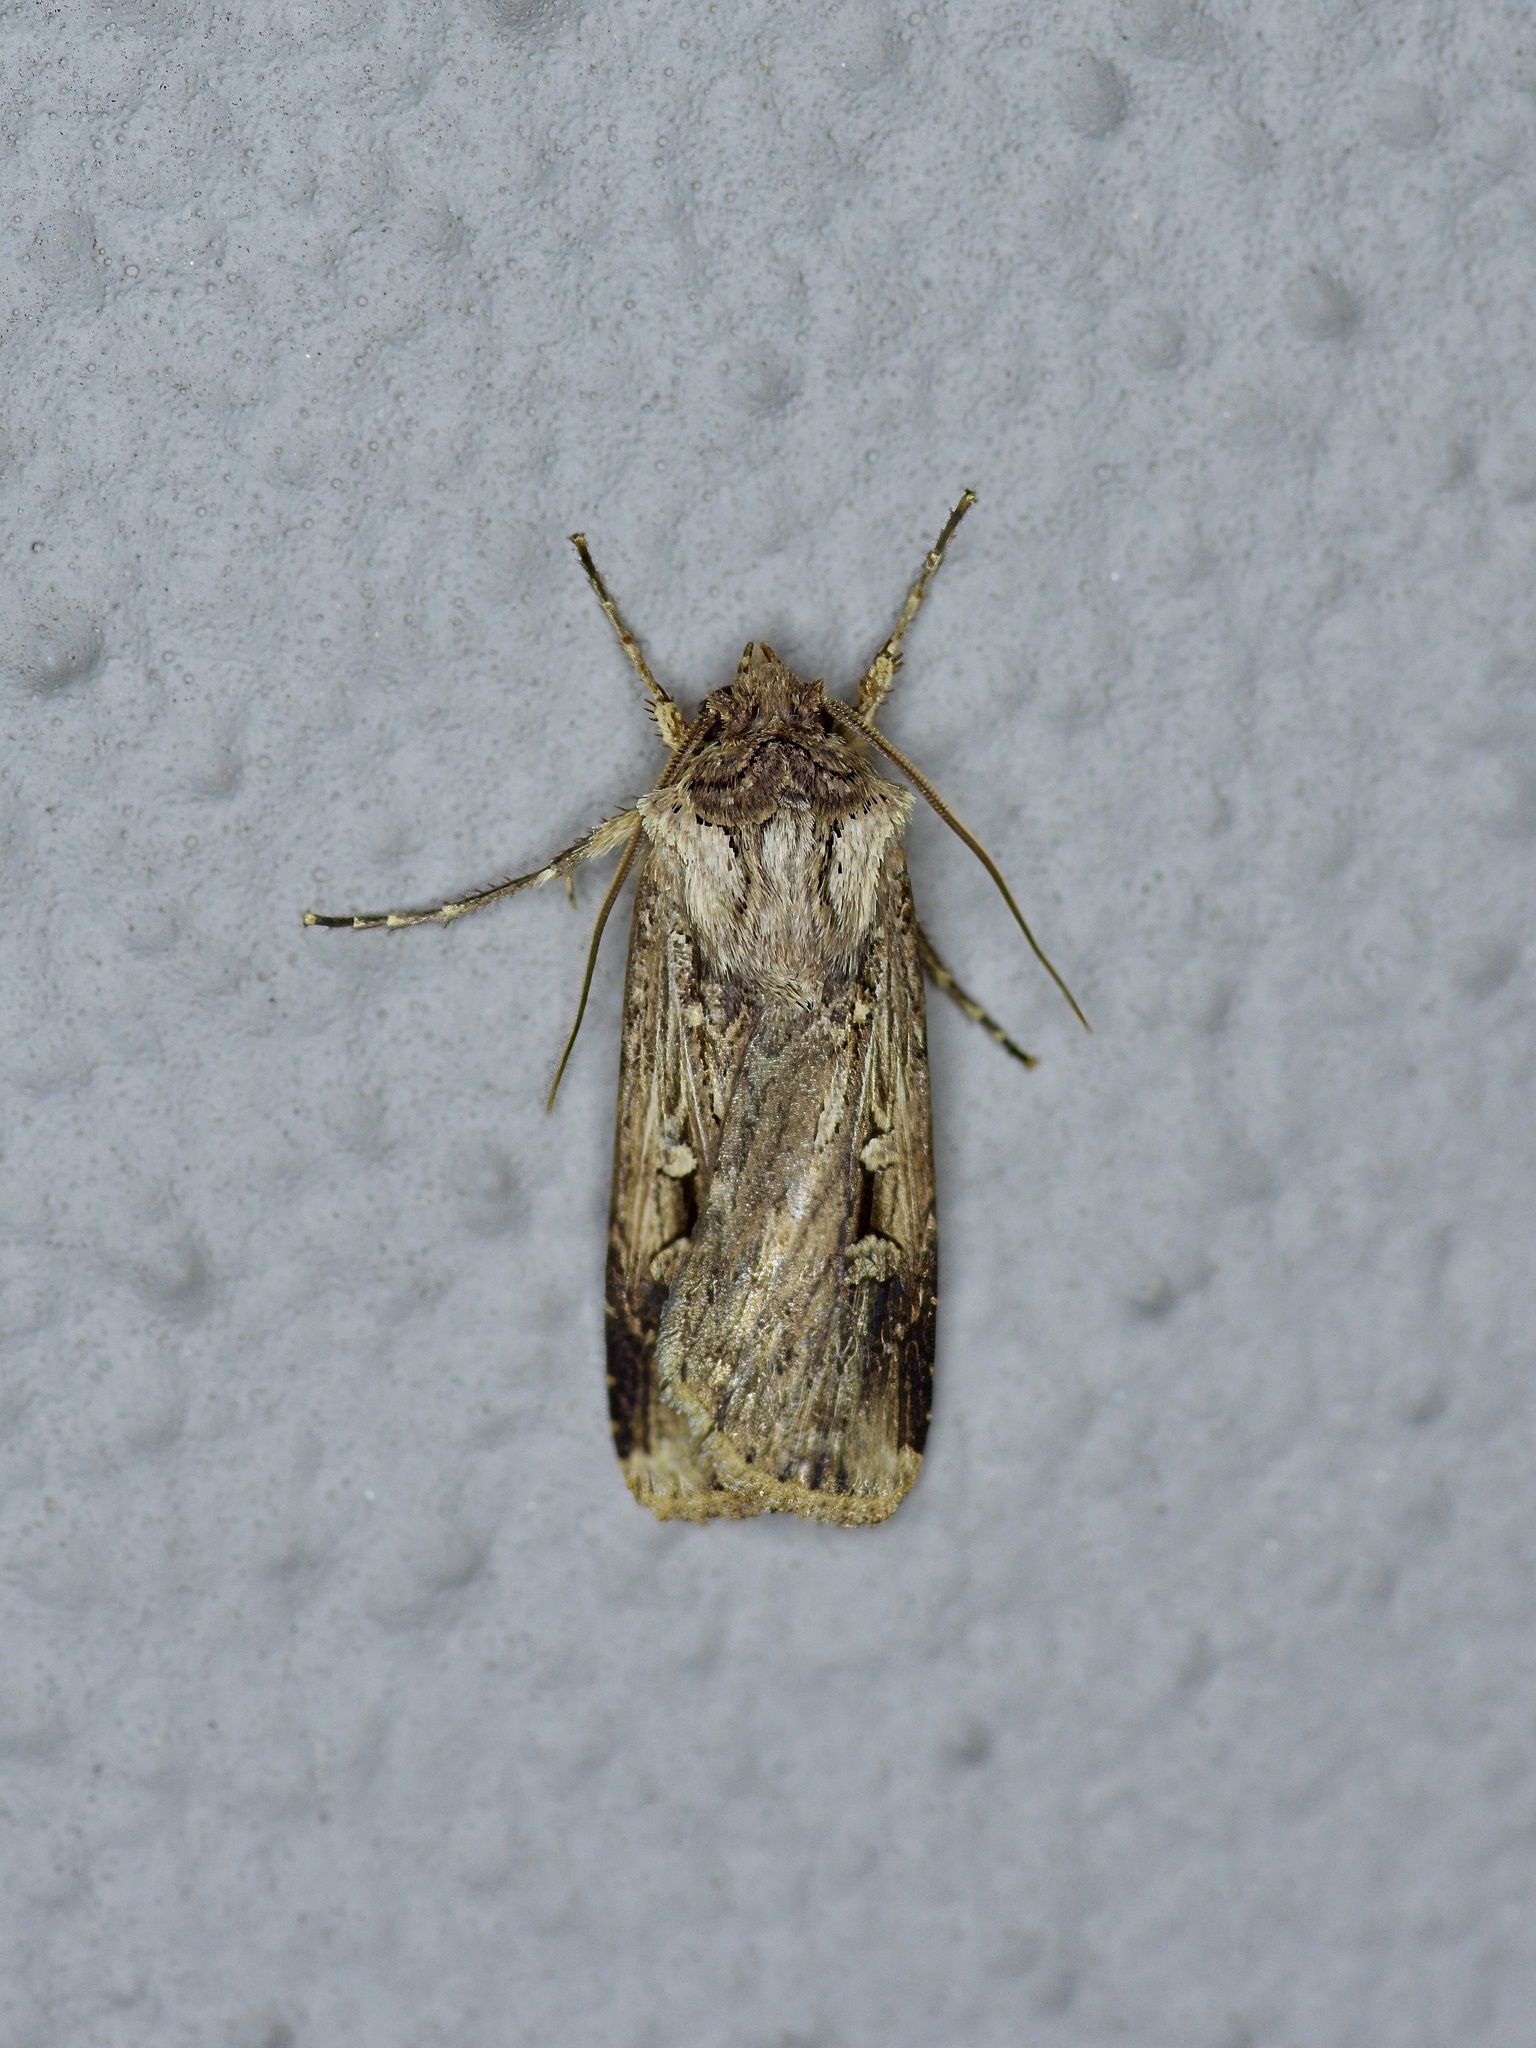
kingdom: Animalia
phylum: Arthropoda
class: Insecta
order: Lepidoptera
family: Noctuidae
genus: Feltia
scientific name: Feltia subterranea
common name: Granulate cutworm
